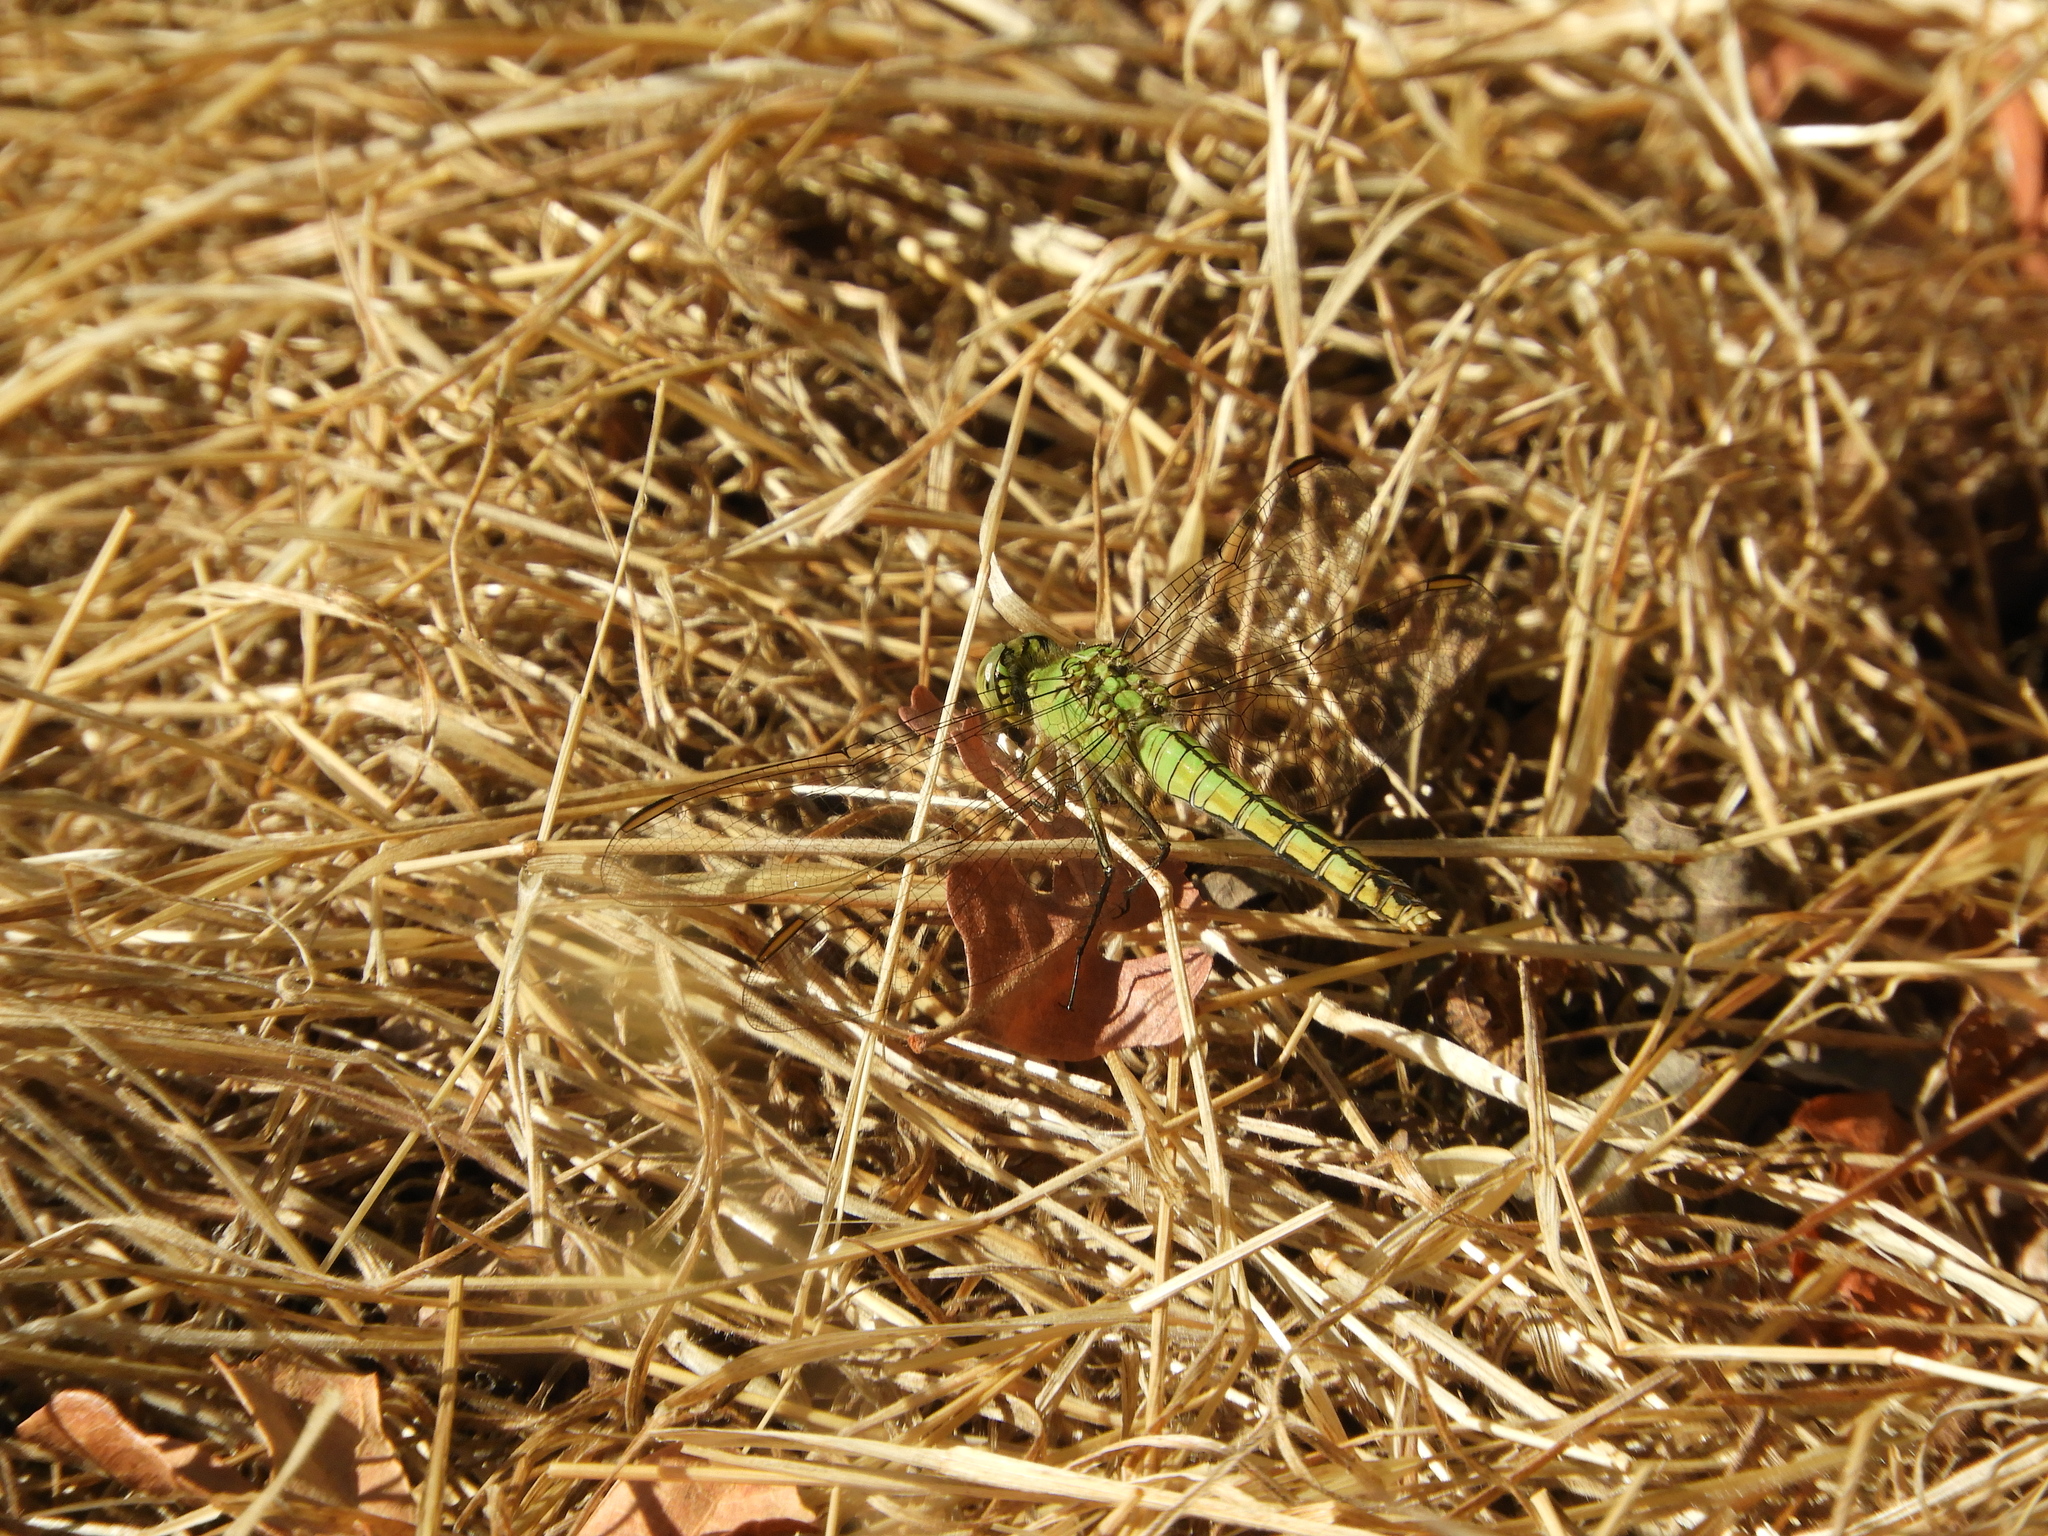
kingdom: Animalia
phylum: Arthropoda
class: Insecta
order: Odonata
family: Libellulidae
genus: Erythemis
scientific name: Erythemis collocata
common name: Western pondhawk
